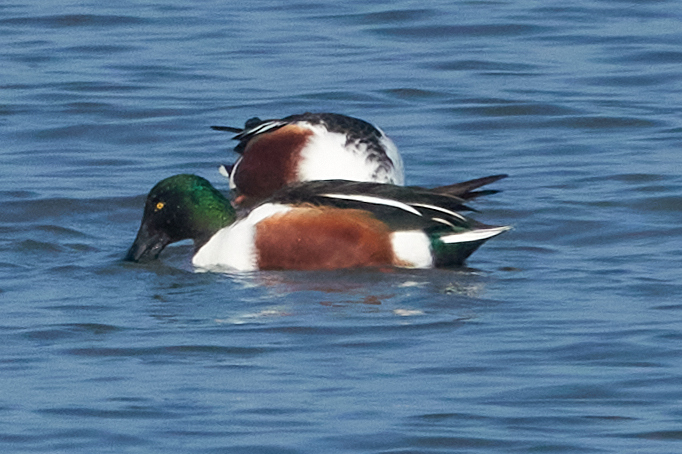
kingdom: Animalia
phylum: Chordata
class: Aves
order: Anseriformes
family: Anatidae
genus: Spatula
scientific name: Spatula clypeata
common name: Northern shoveler
